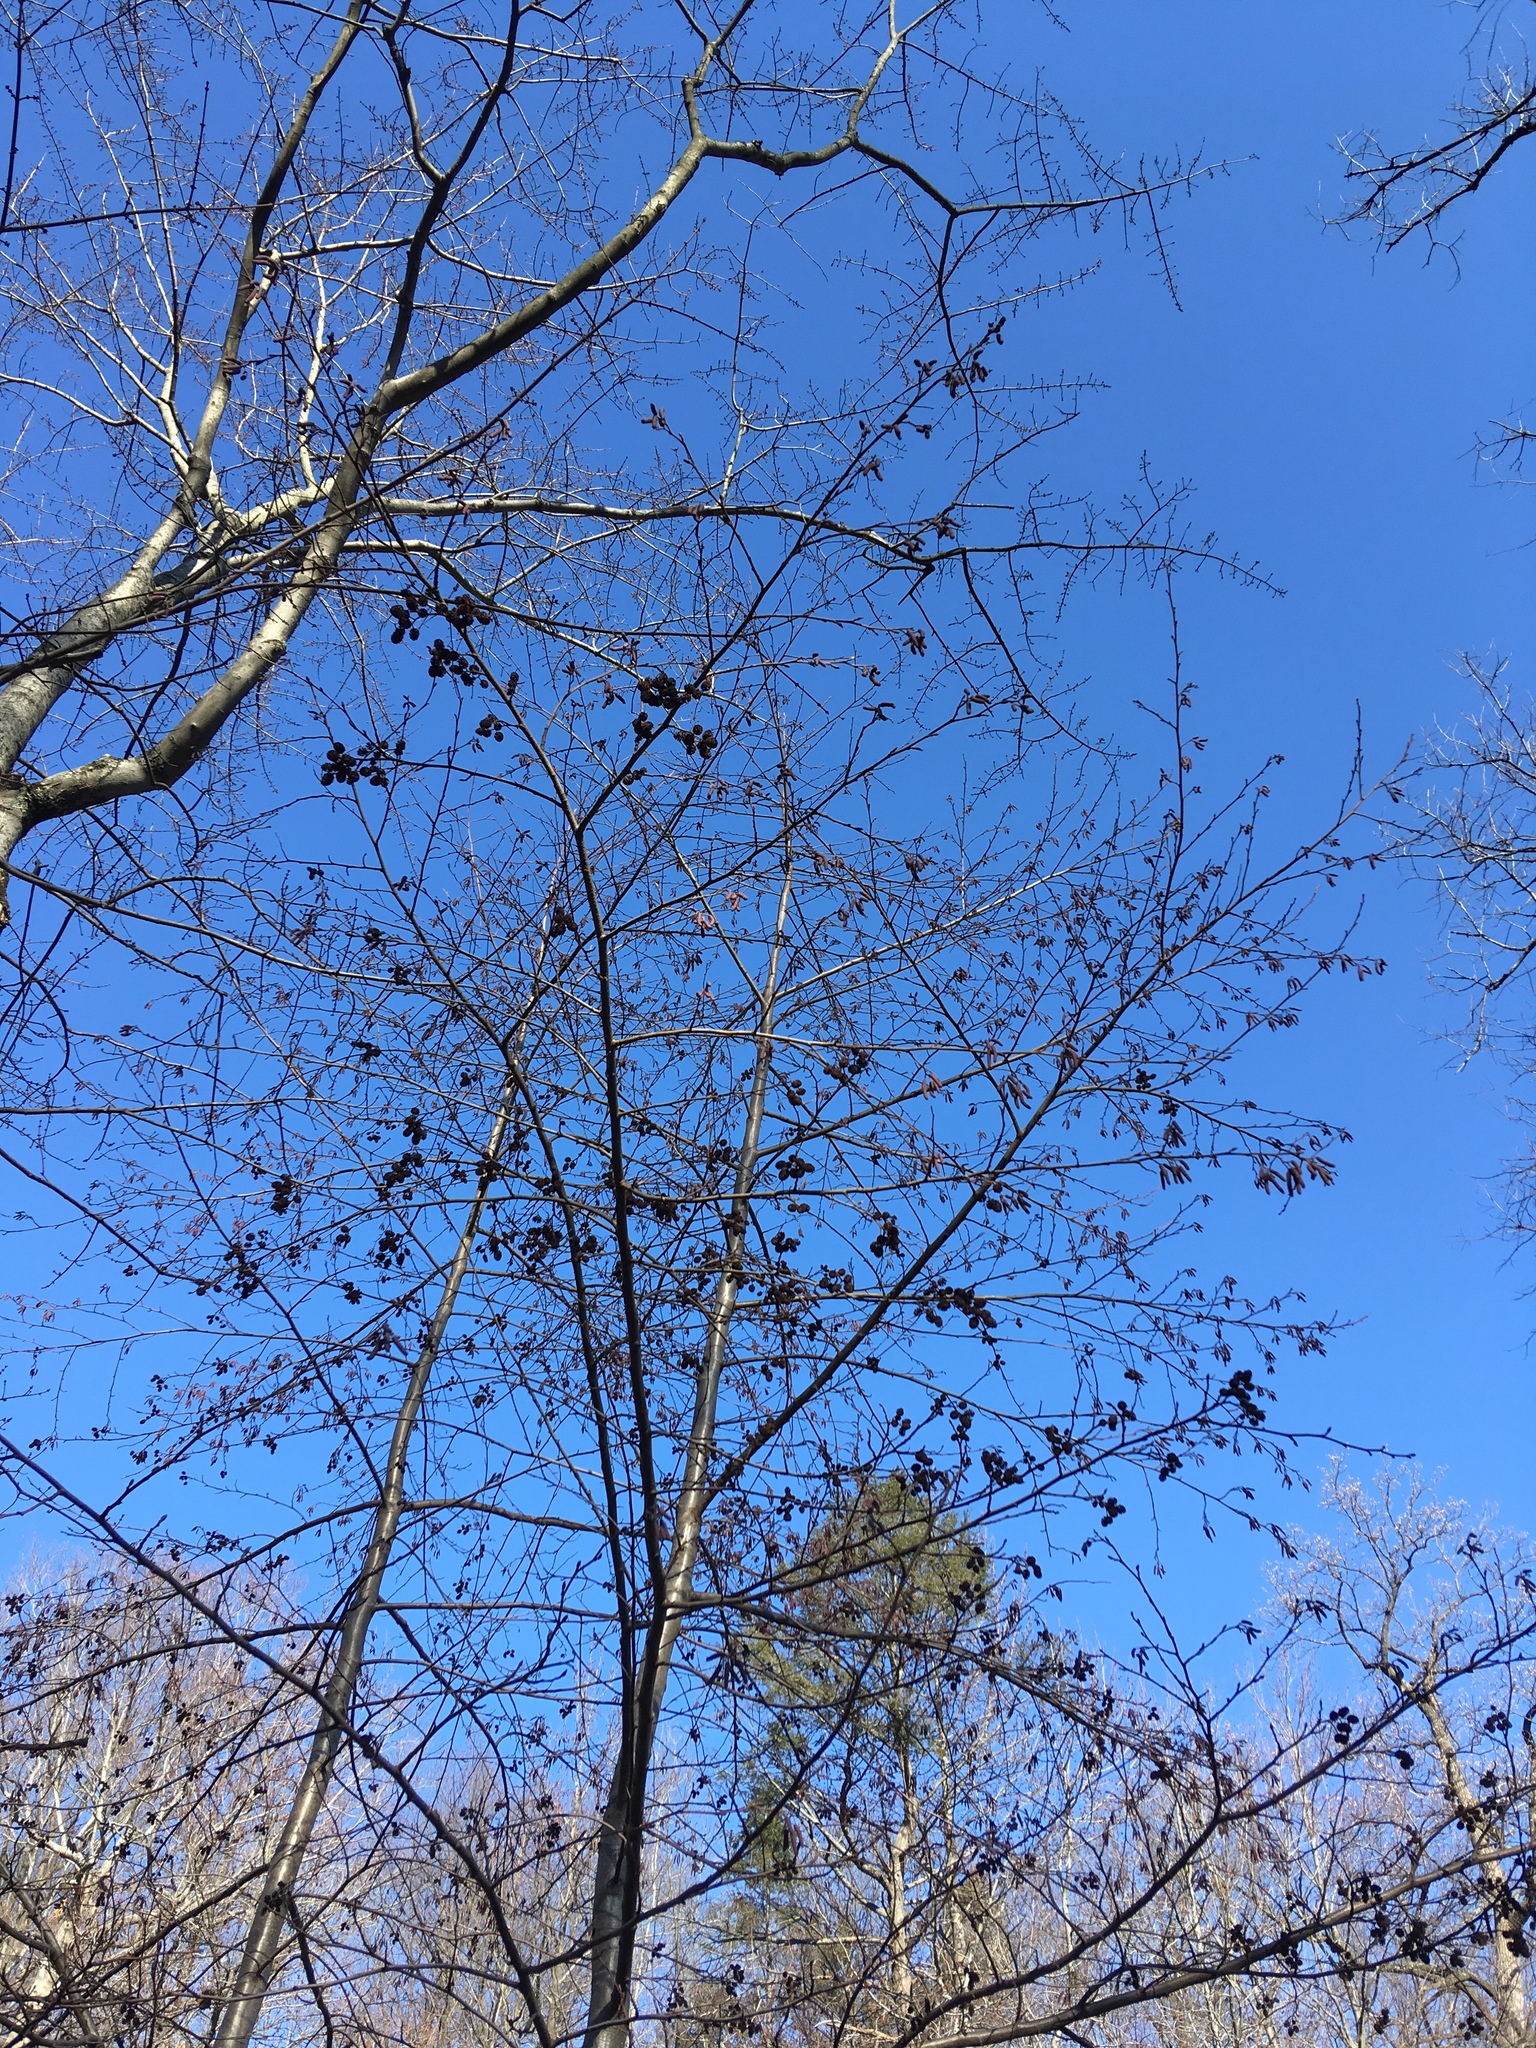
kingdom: Plantae
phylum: Tracheophyta
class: Magnoliopsida
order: Fagales
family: Betulaceae
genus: Alnus
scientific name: Alnus glutinosa
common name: Black alder
